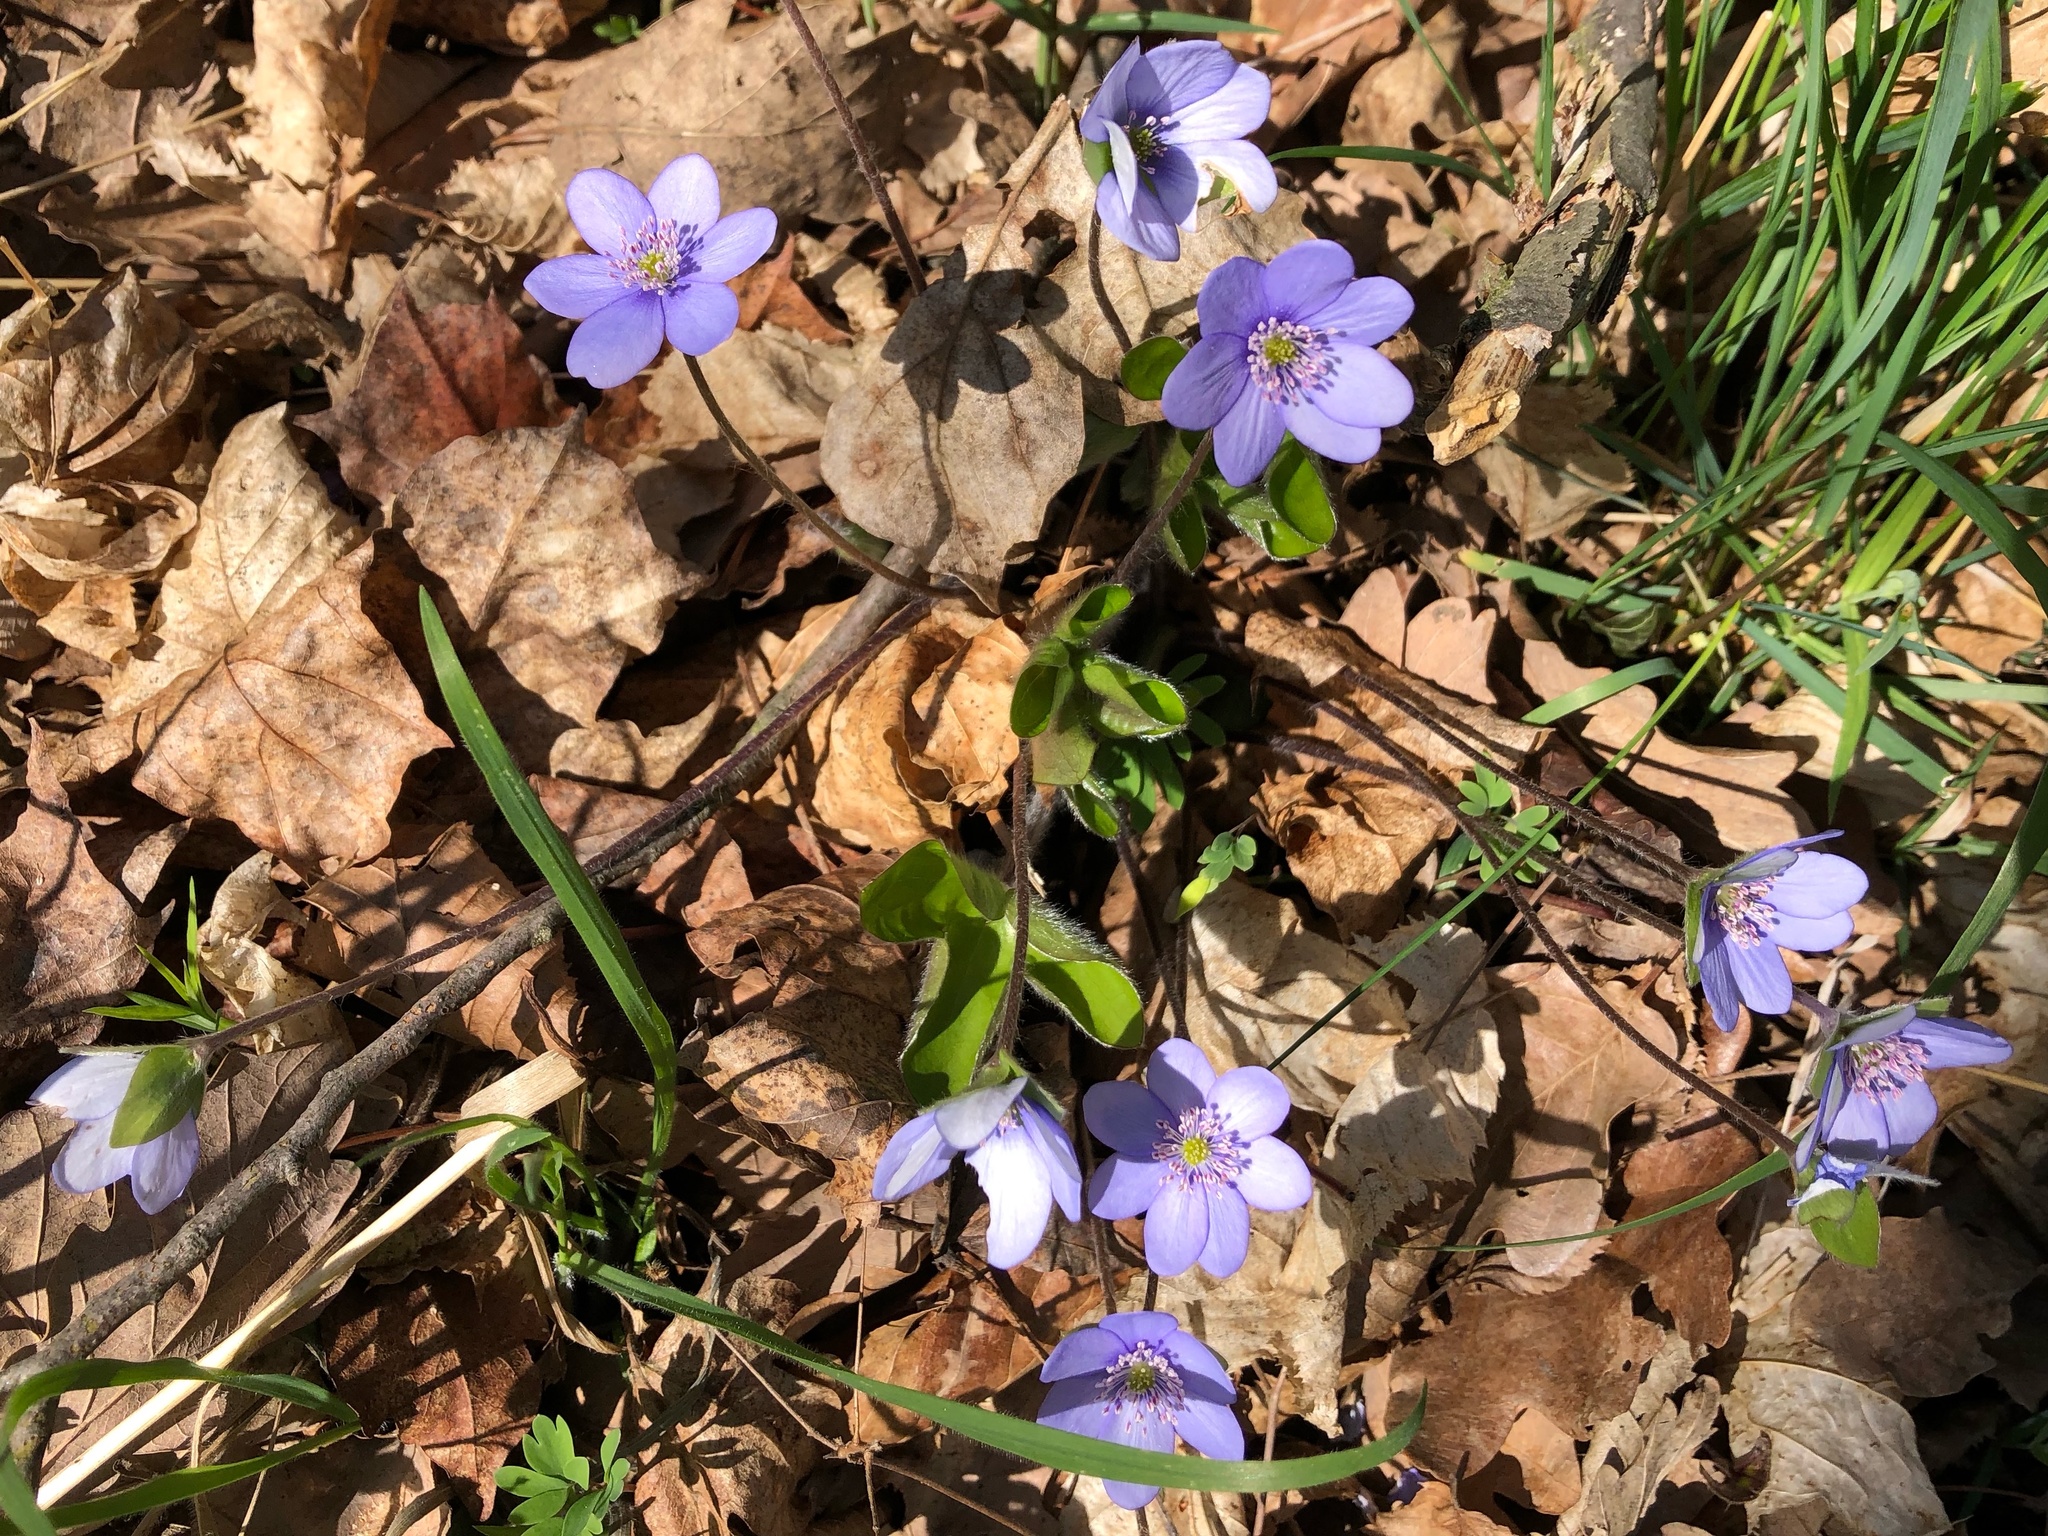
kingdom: Plantae
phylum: Tracheophyta
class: Magnoliopsida
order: Ranunculales
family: Ranunculaceae
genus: Hepatica
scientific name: Hepatica nobilis
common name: Liverleaf
